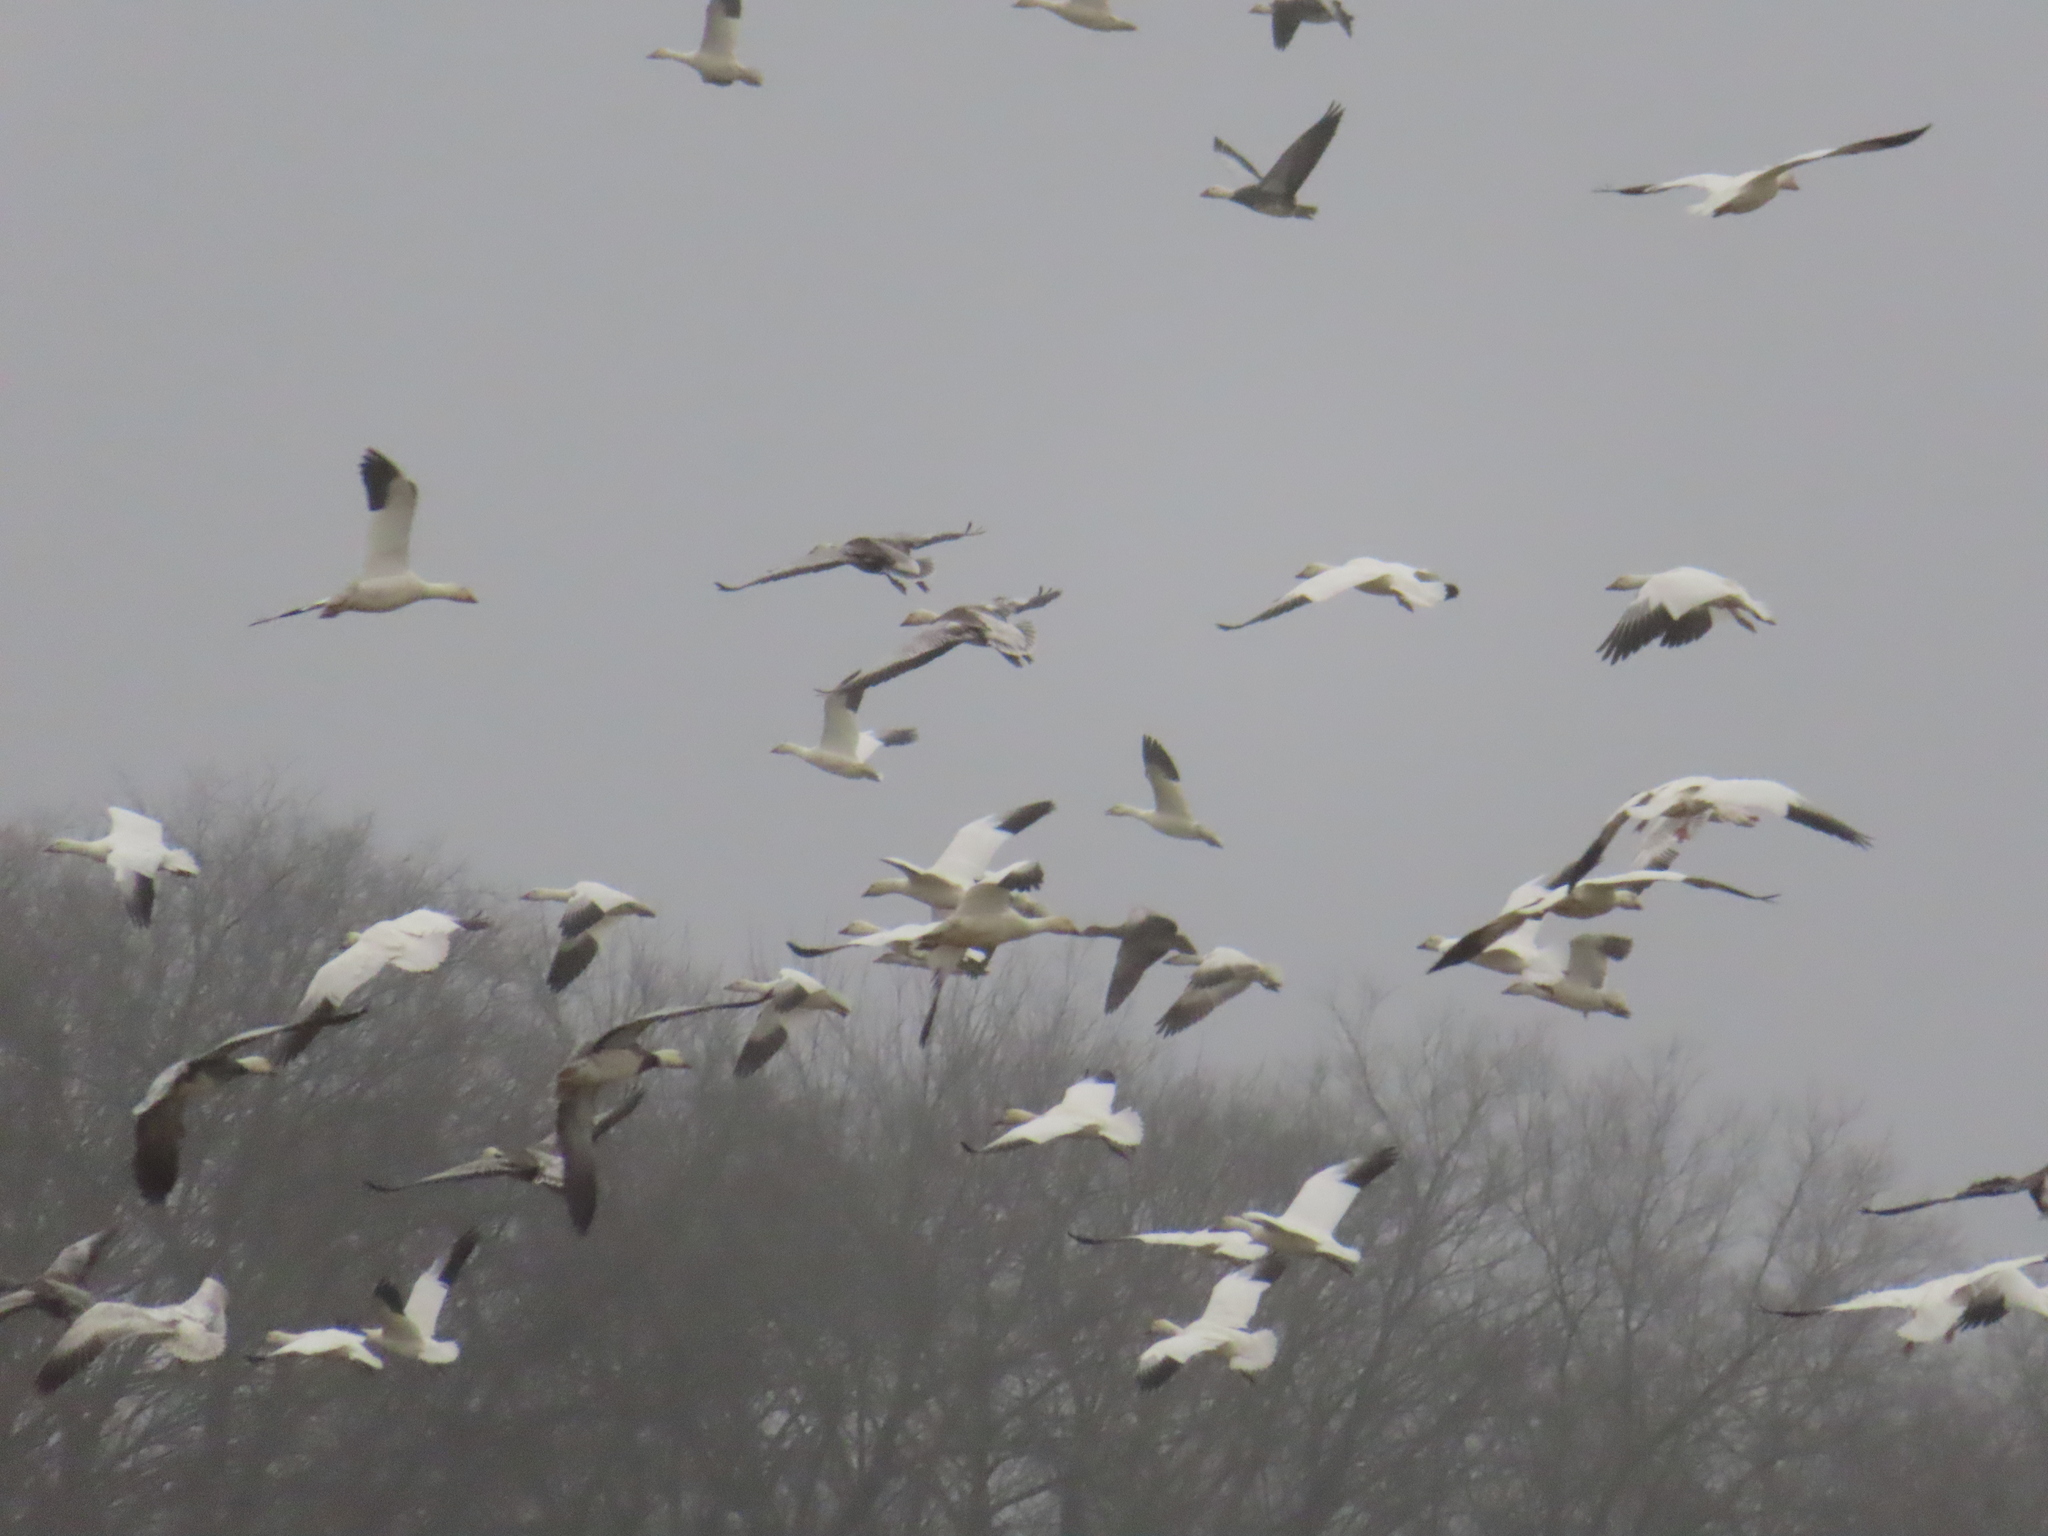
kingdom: Animalia
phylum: Chordata
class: Aves
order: Anseriformes
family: Anatidae
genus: Anser
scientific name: Anser caerulescens
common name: Snow goose
